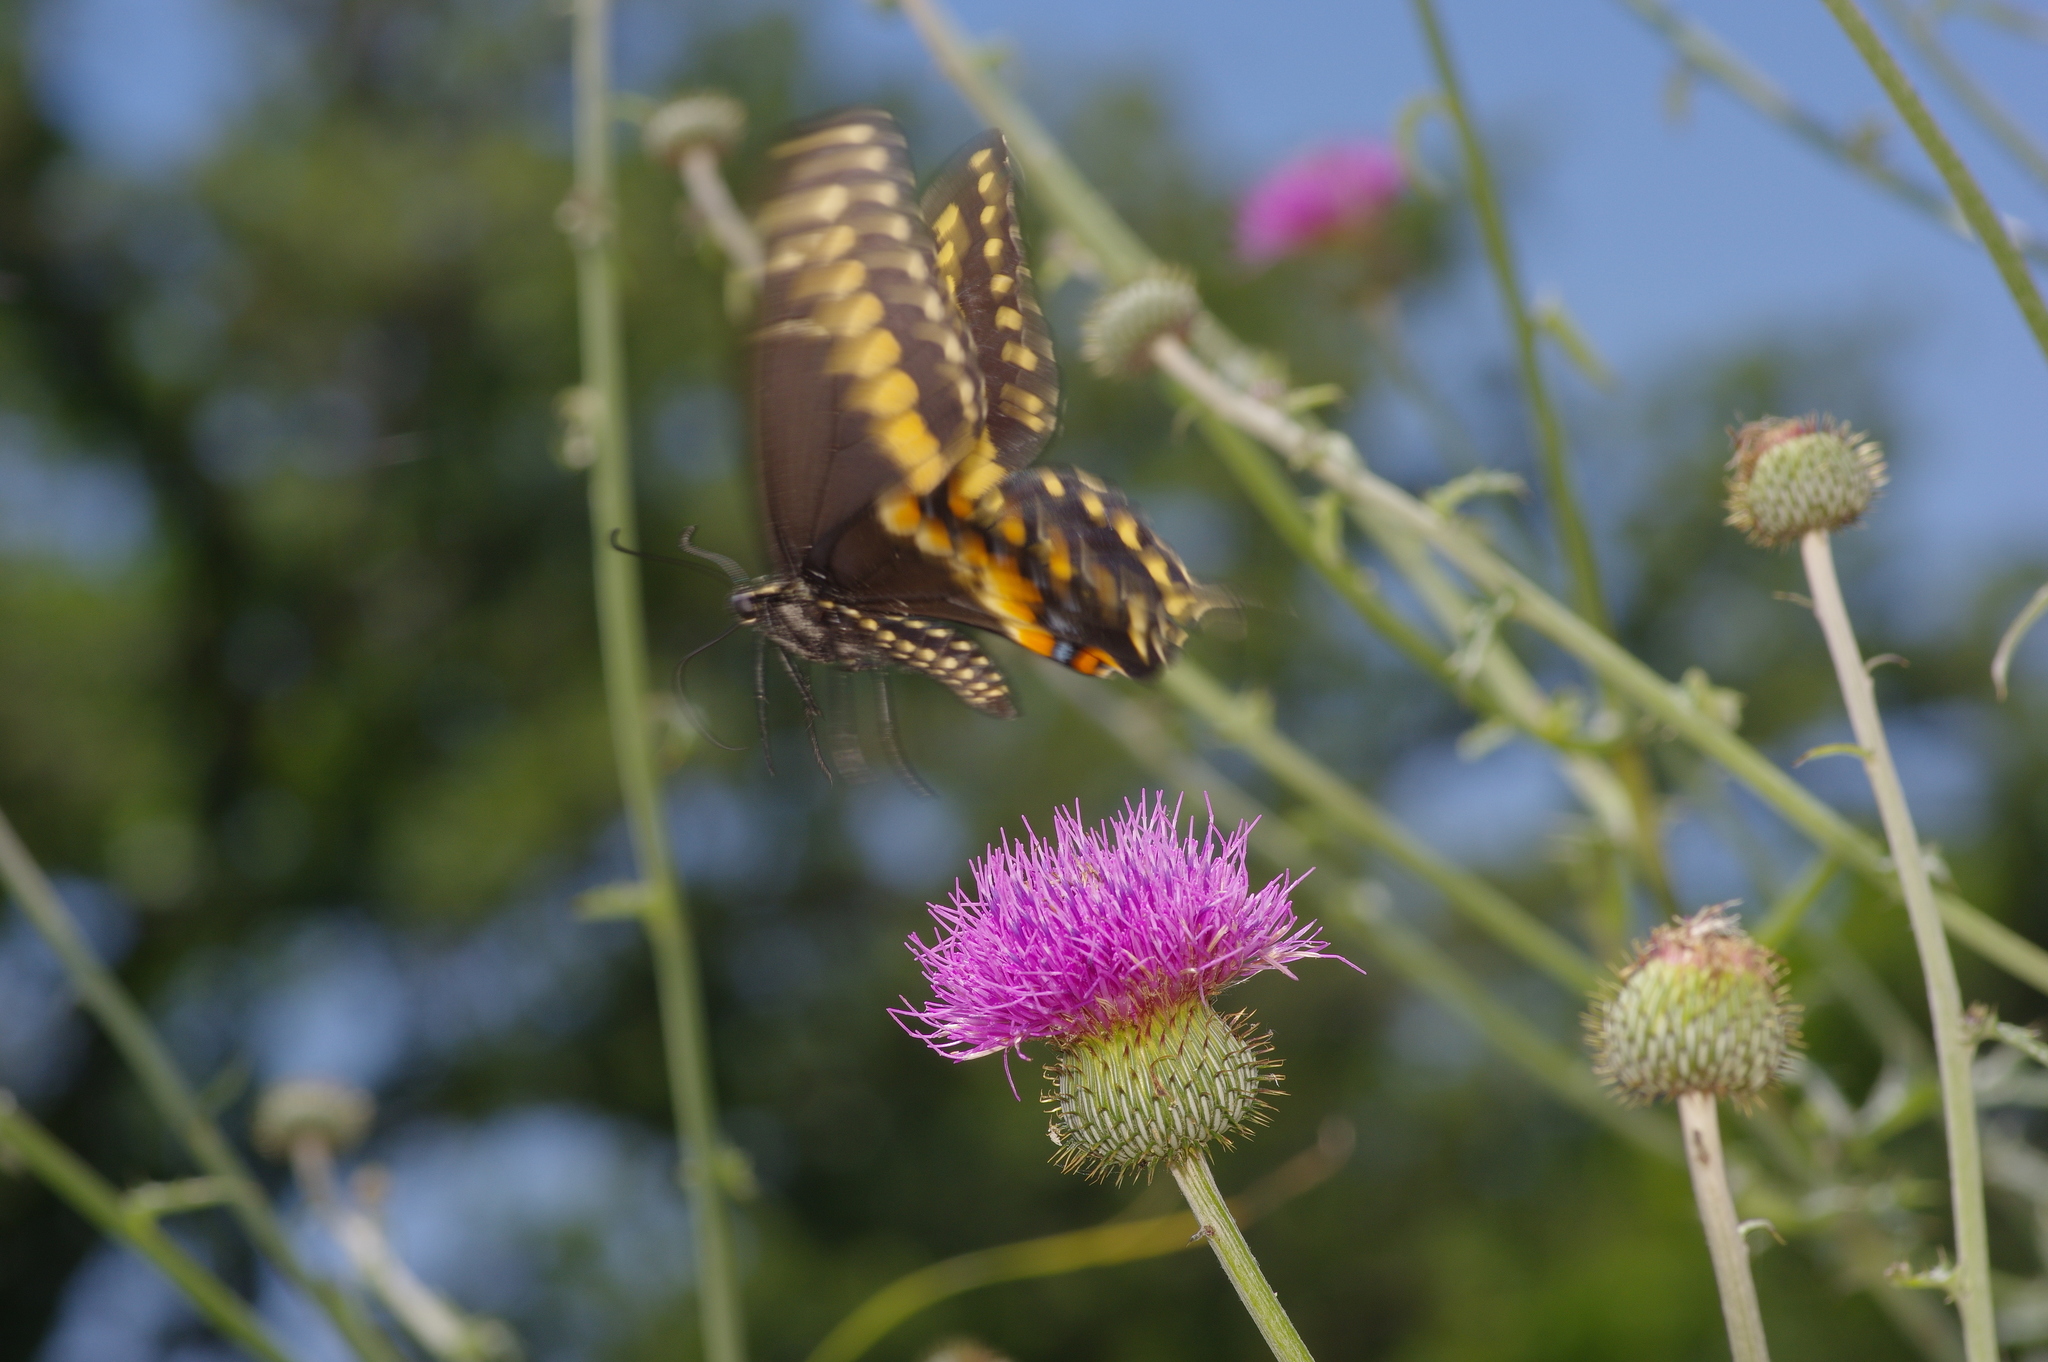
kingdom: Plantae
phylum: Tracheophyta
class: Magnoliopsida
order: Asterales
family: Asteraceae
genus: Cirsium
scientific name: Cirsium texanum
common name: Texas purple thistle
